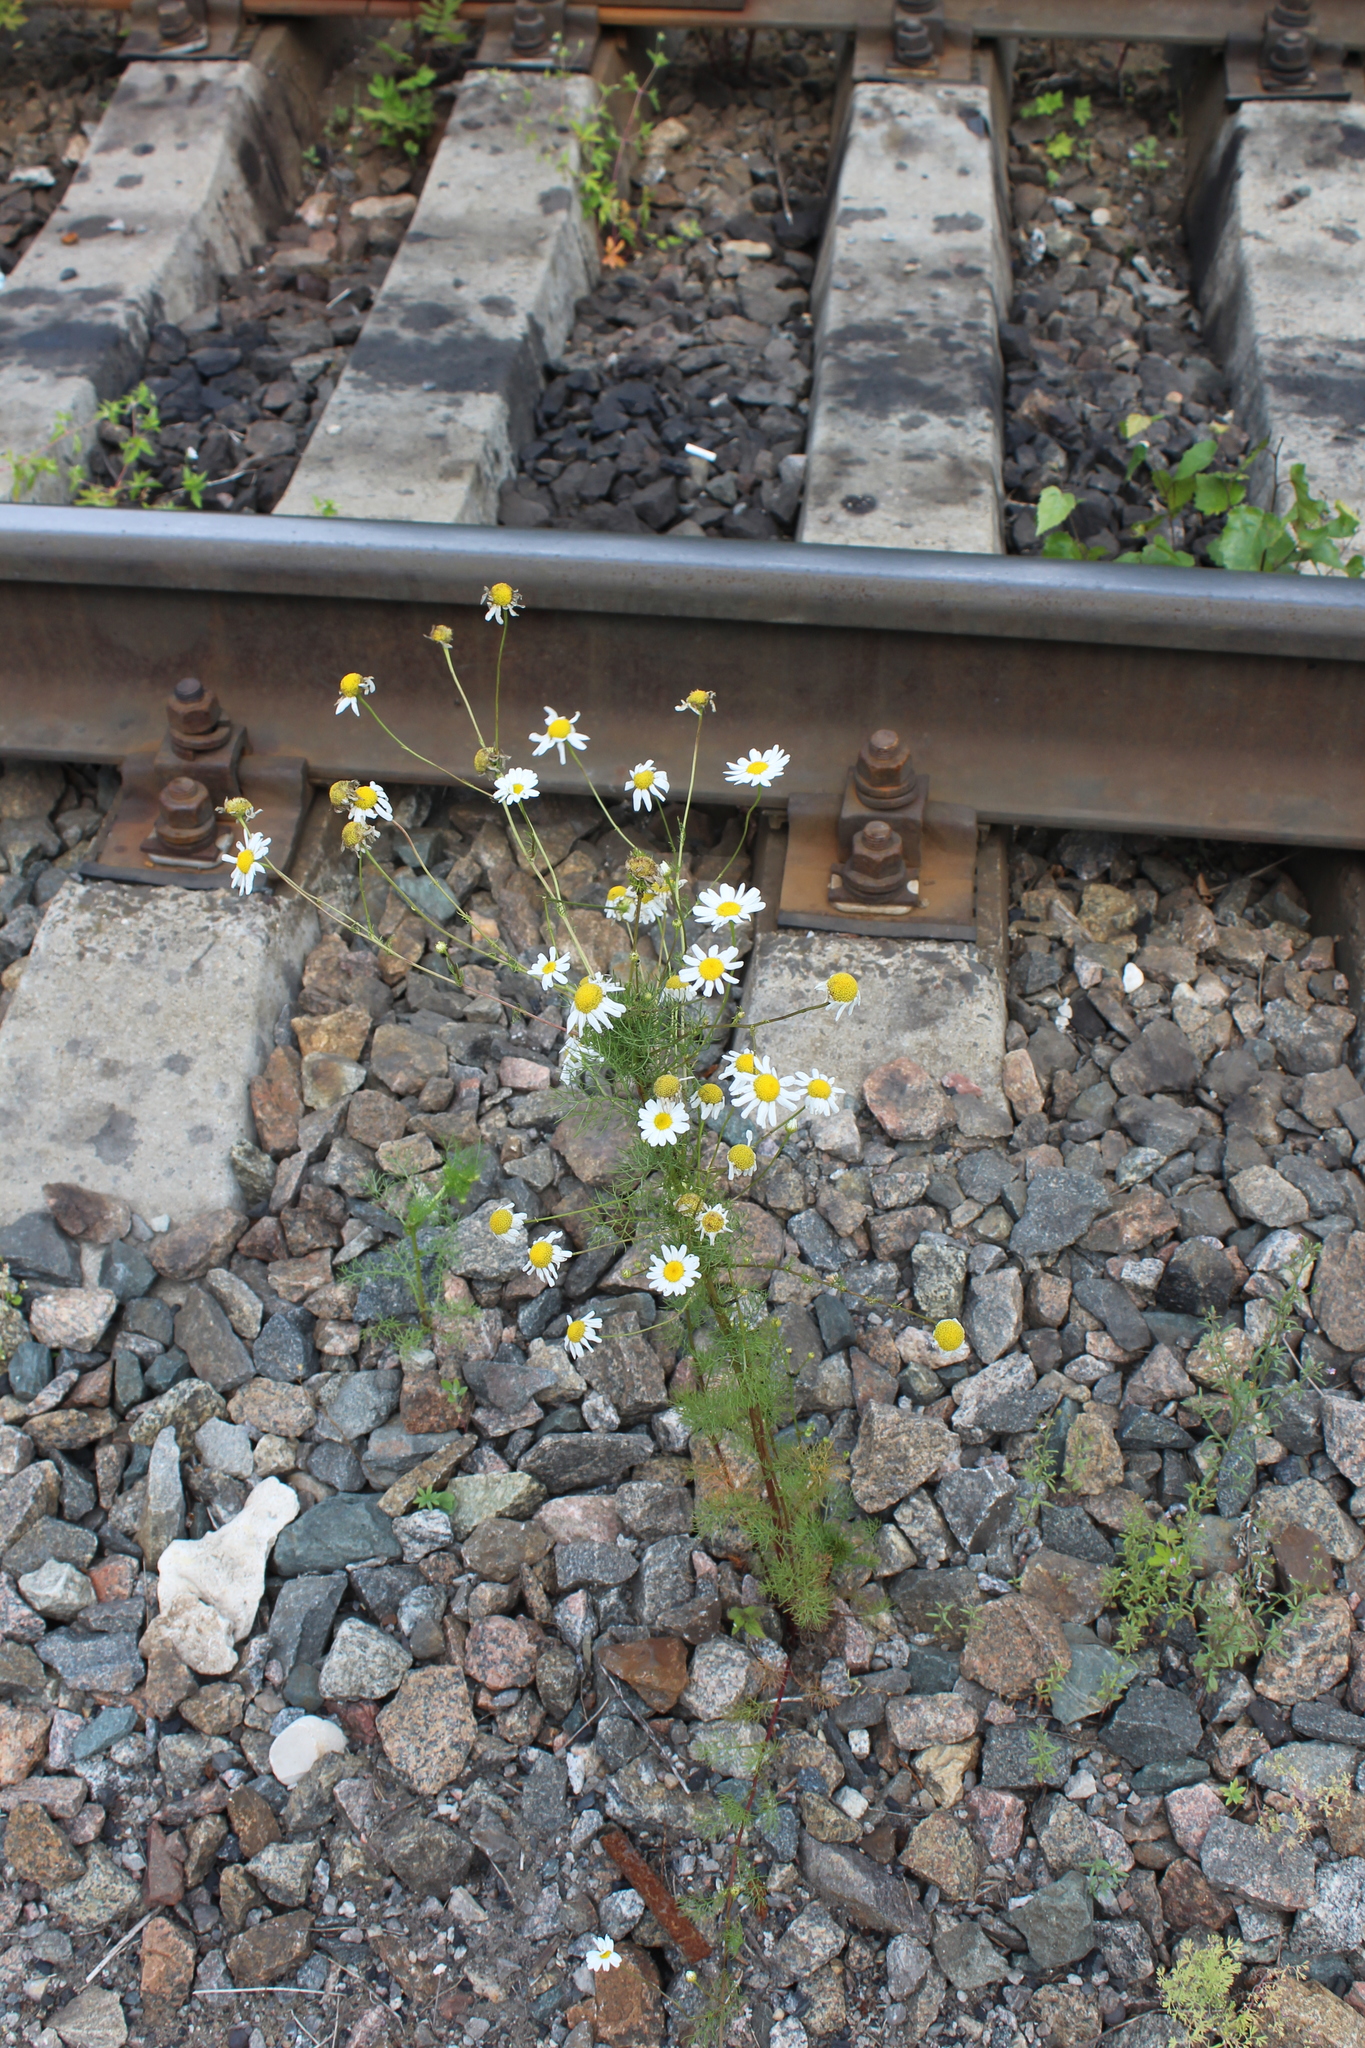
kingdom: Plantae
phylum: Tracheophyta
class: Magnoliopsida
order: Asterales
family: Asteraceae
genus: Tripleurospermum
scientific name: Tripleurospermum inodorum
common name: Scentless mayweed
